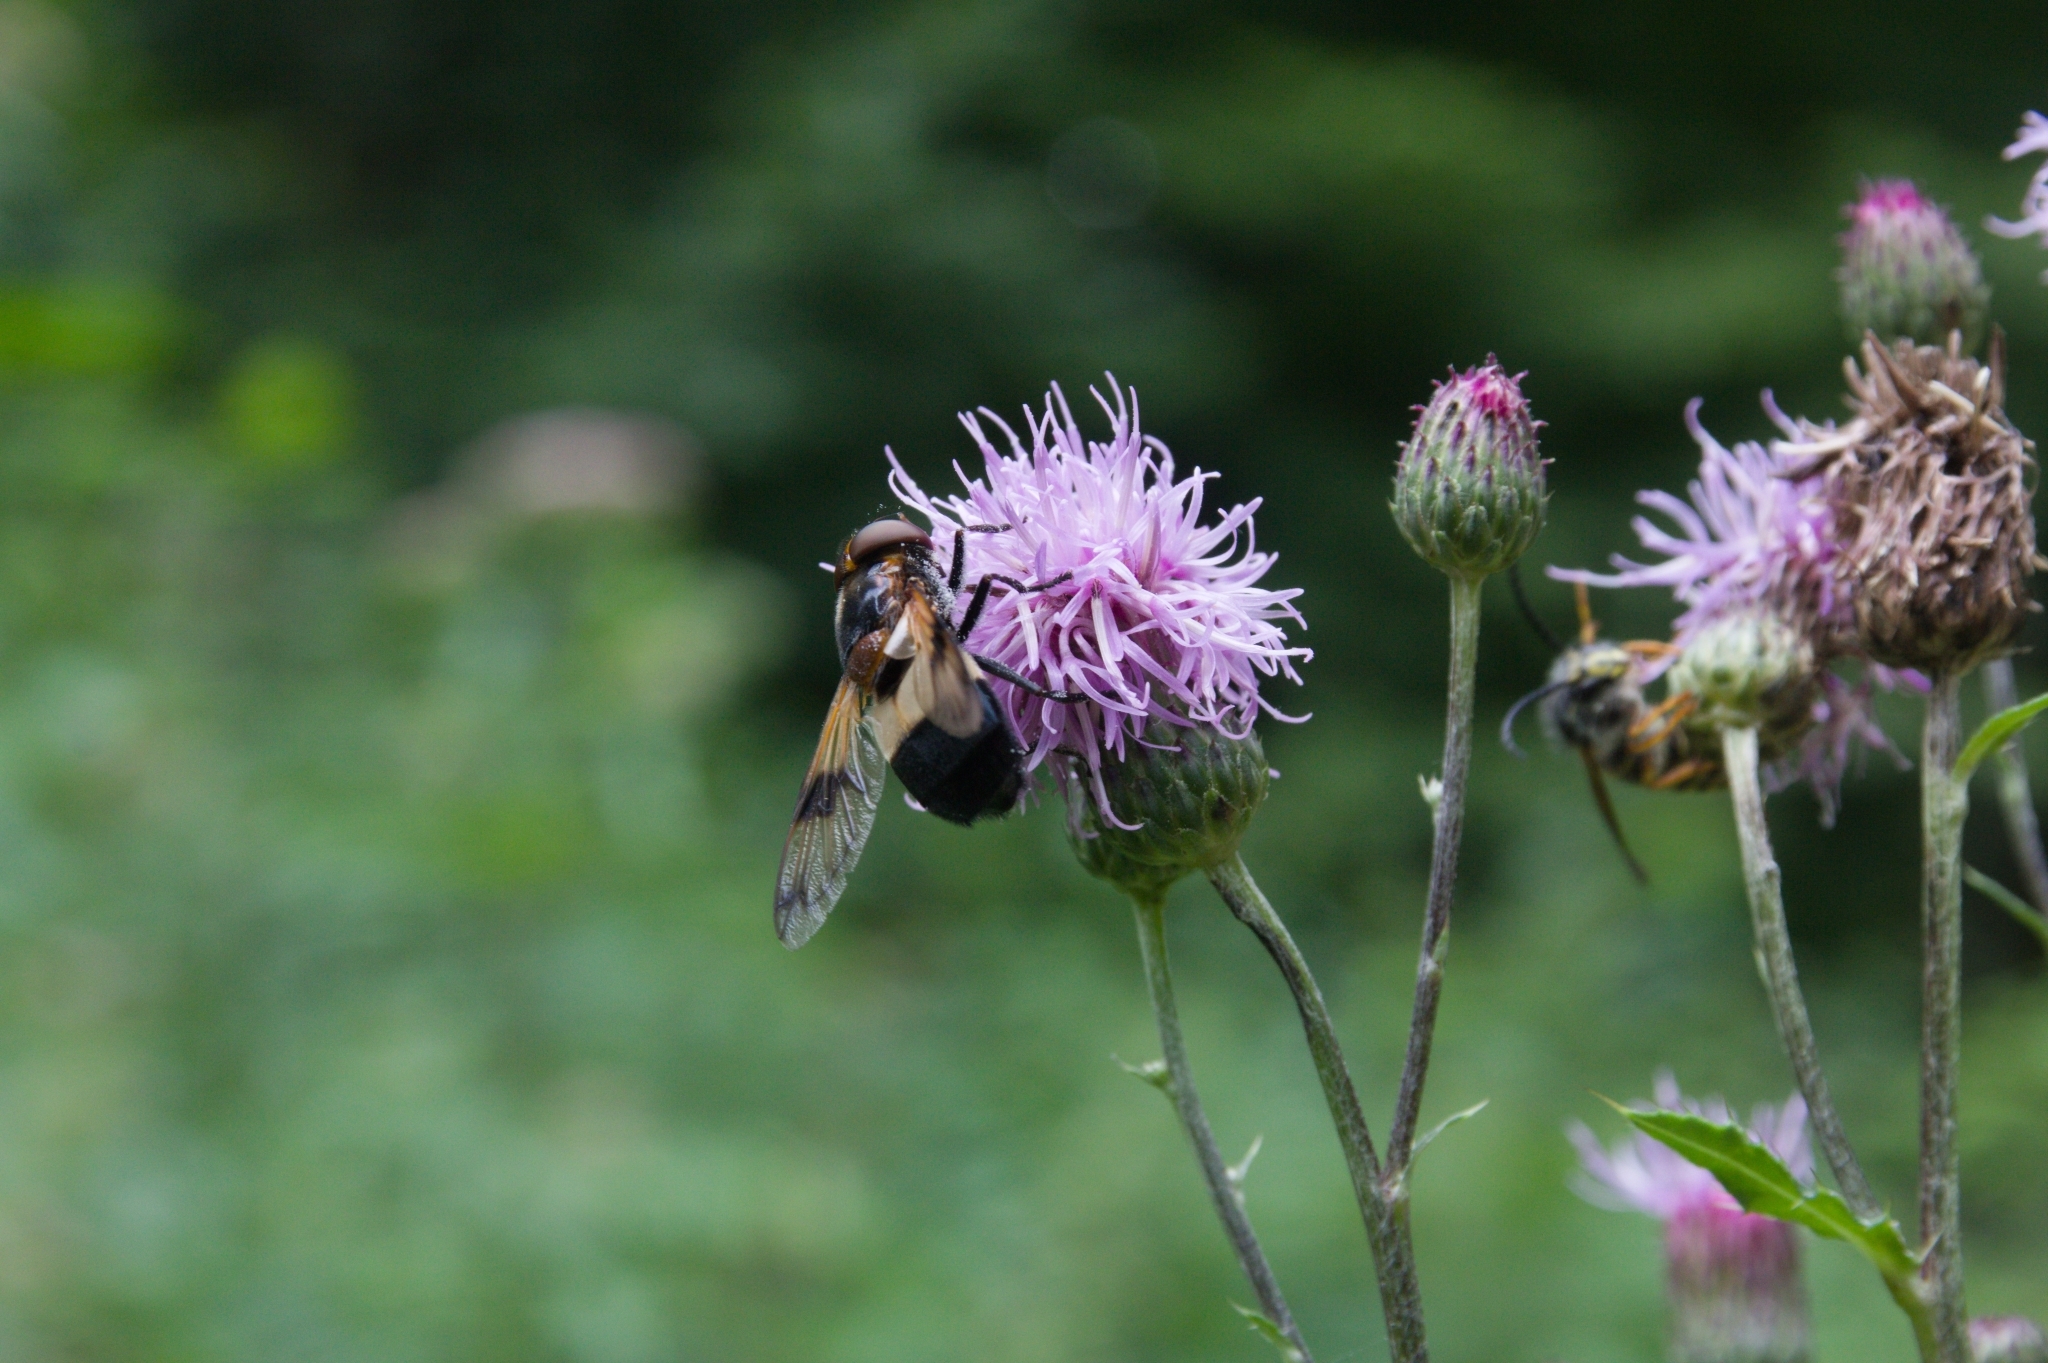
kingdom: Animalia
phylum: Arthropoda
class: Insecta
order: Diptera
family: Syrphidae
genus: Volucella
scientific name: Volucella pellucens
